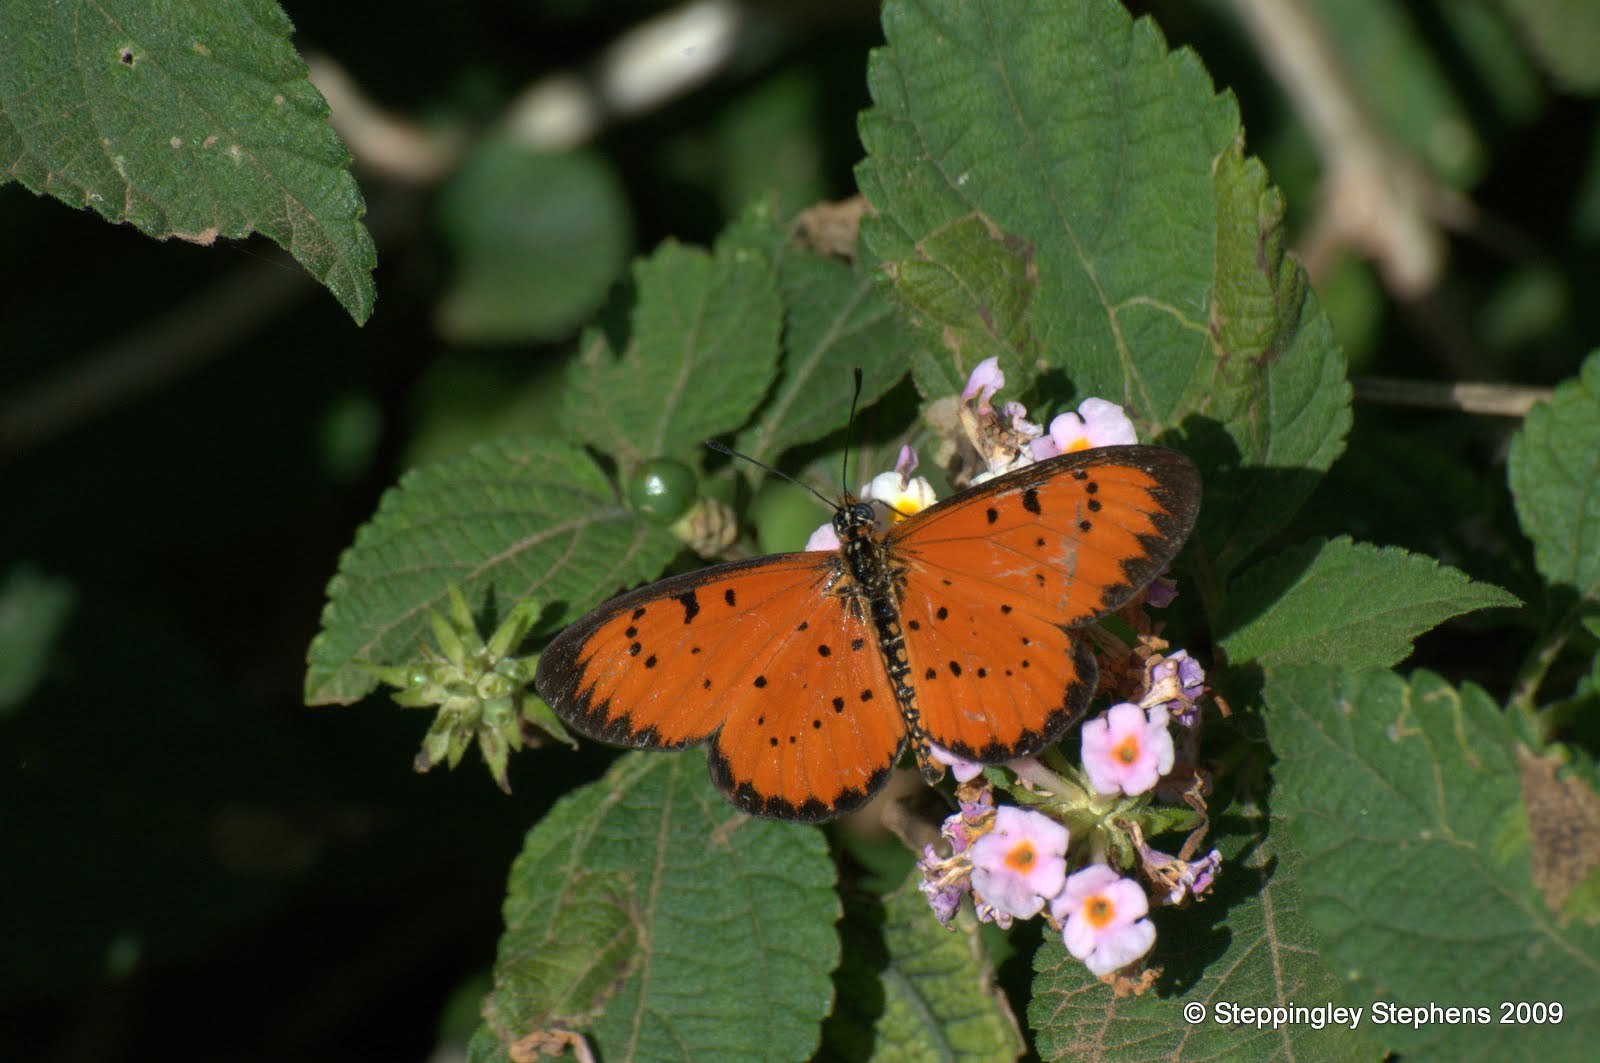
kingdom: Animalia
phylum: Arthropoda
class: Insecta
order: Lepidoptera
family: Nymphalidae
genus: Acraea
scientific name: Acraea
